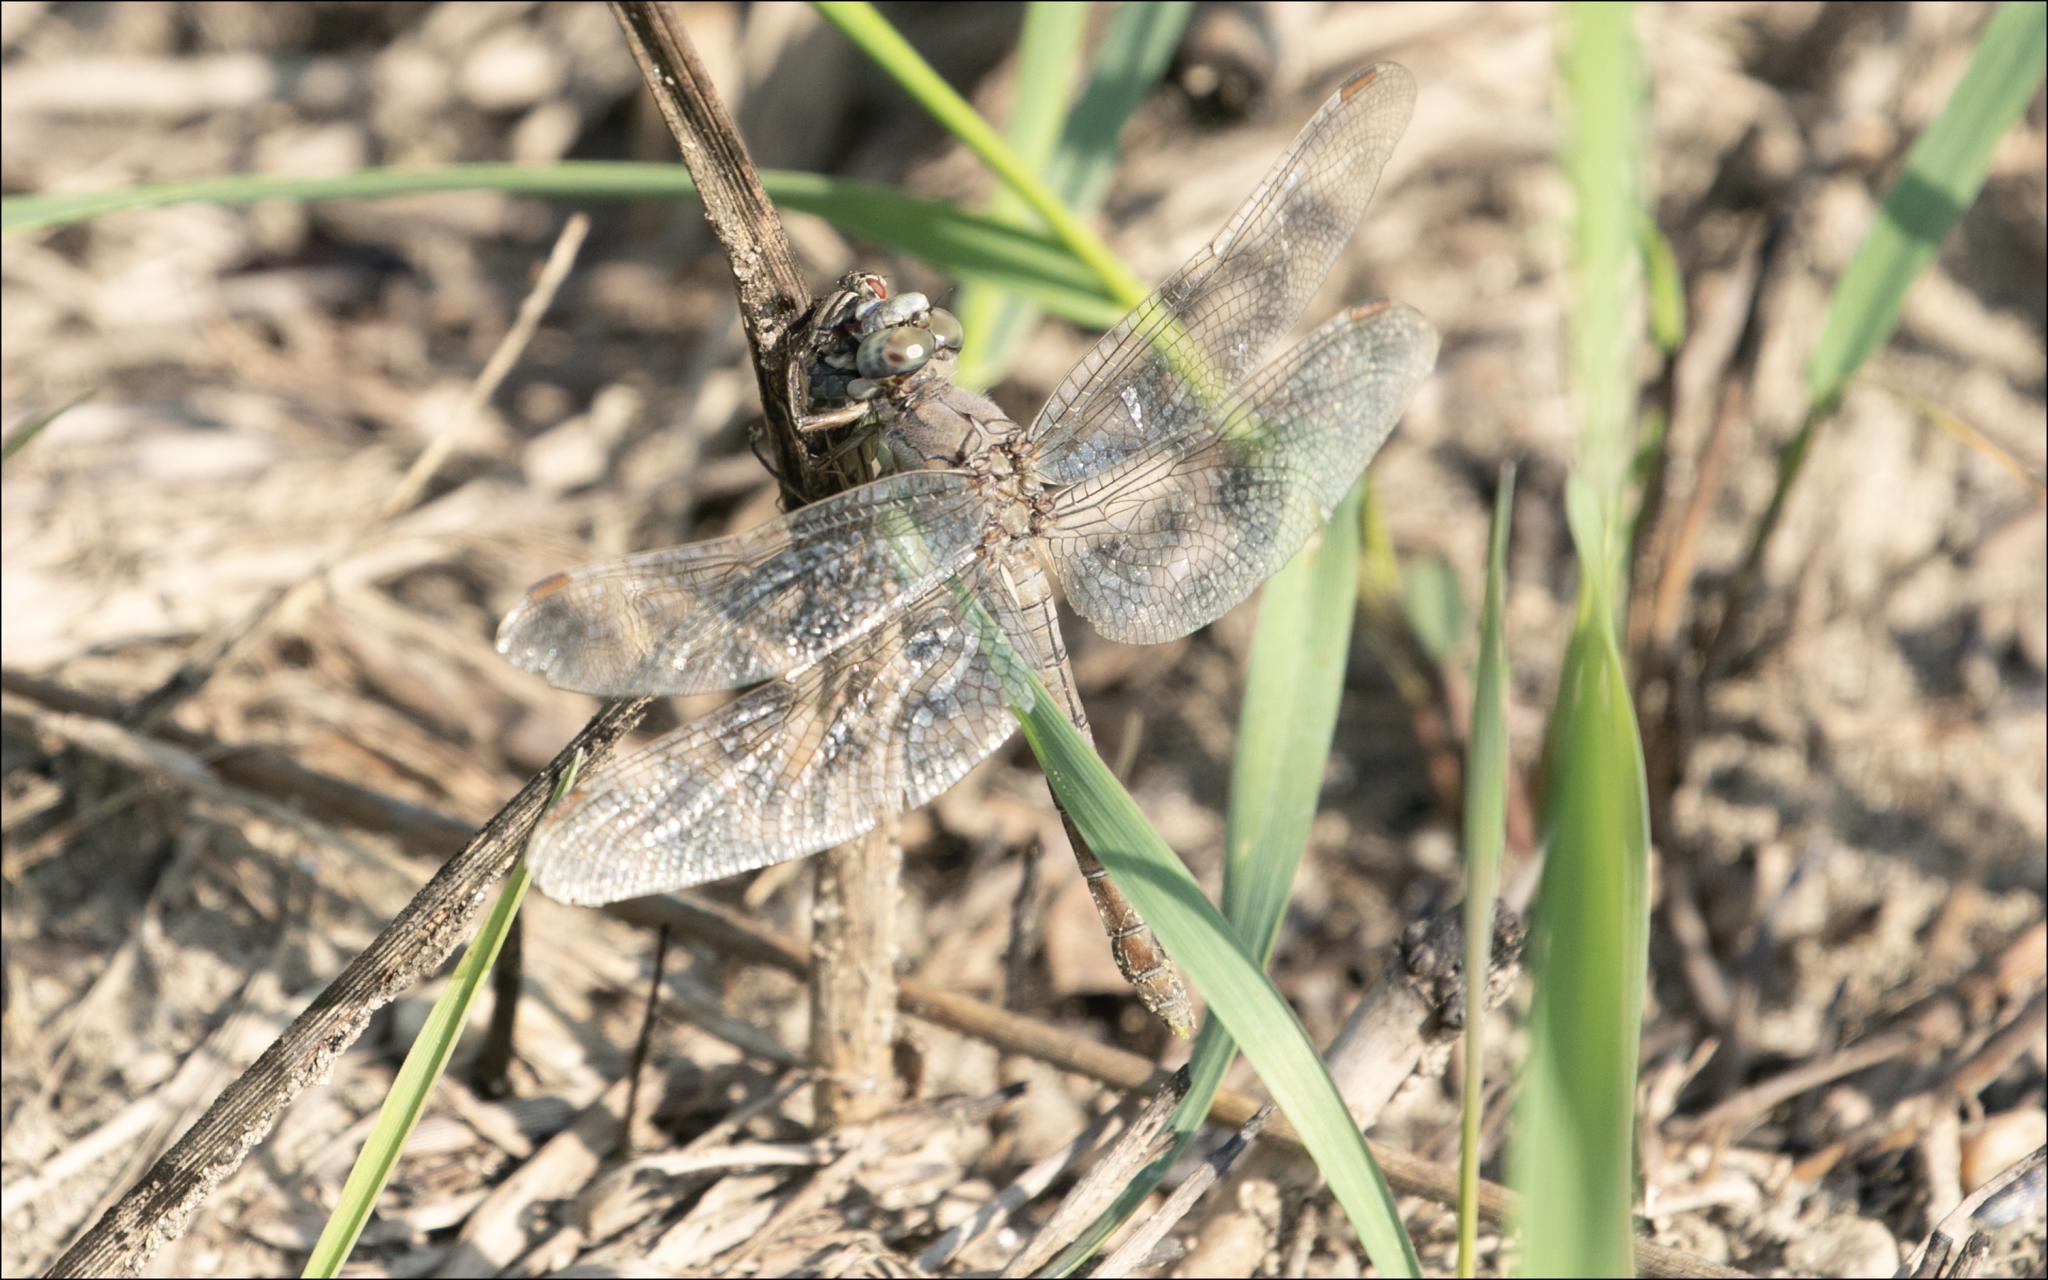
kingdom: Animalia
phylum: Arthropoda
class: Insecta
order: Odonata
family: Libellulidae
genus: Orthetrum
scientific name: Orthetrum brunneum
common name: Southern skimmer
